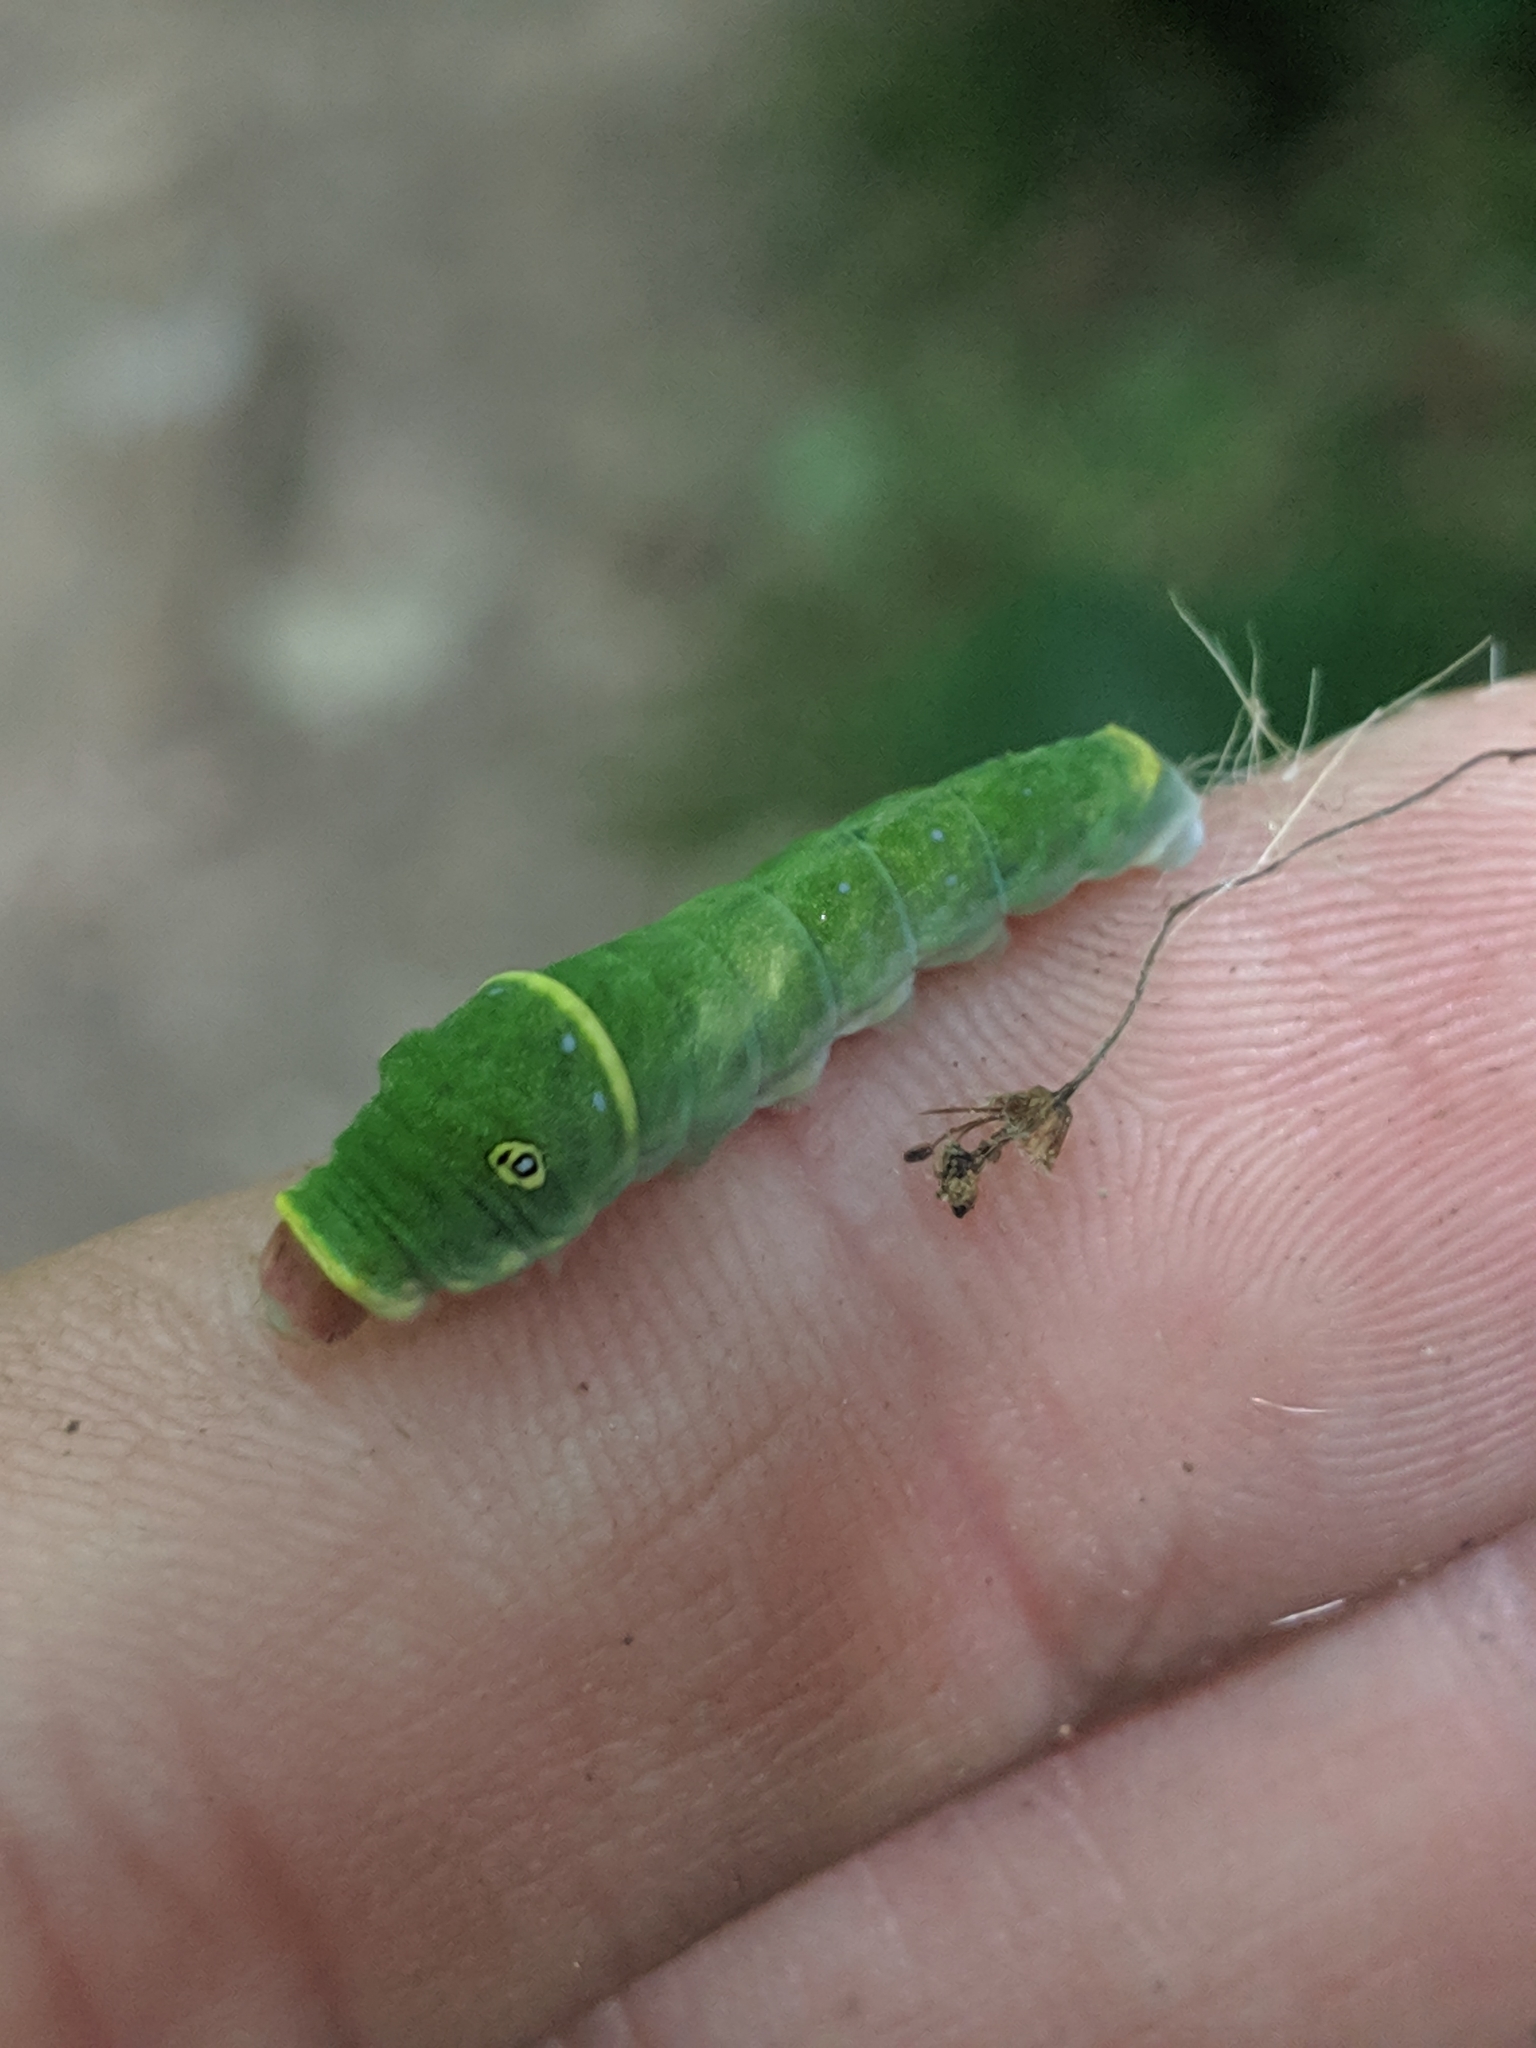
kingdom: Animalia
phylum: Arthropoda
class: Insecta
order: Lepidoptera
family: Papilionidae
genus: Papilio
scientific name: Papilio glaucus
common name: Tiger swallowtail
